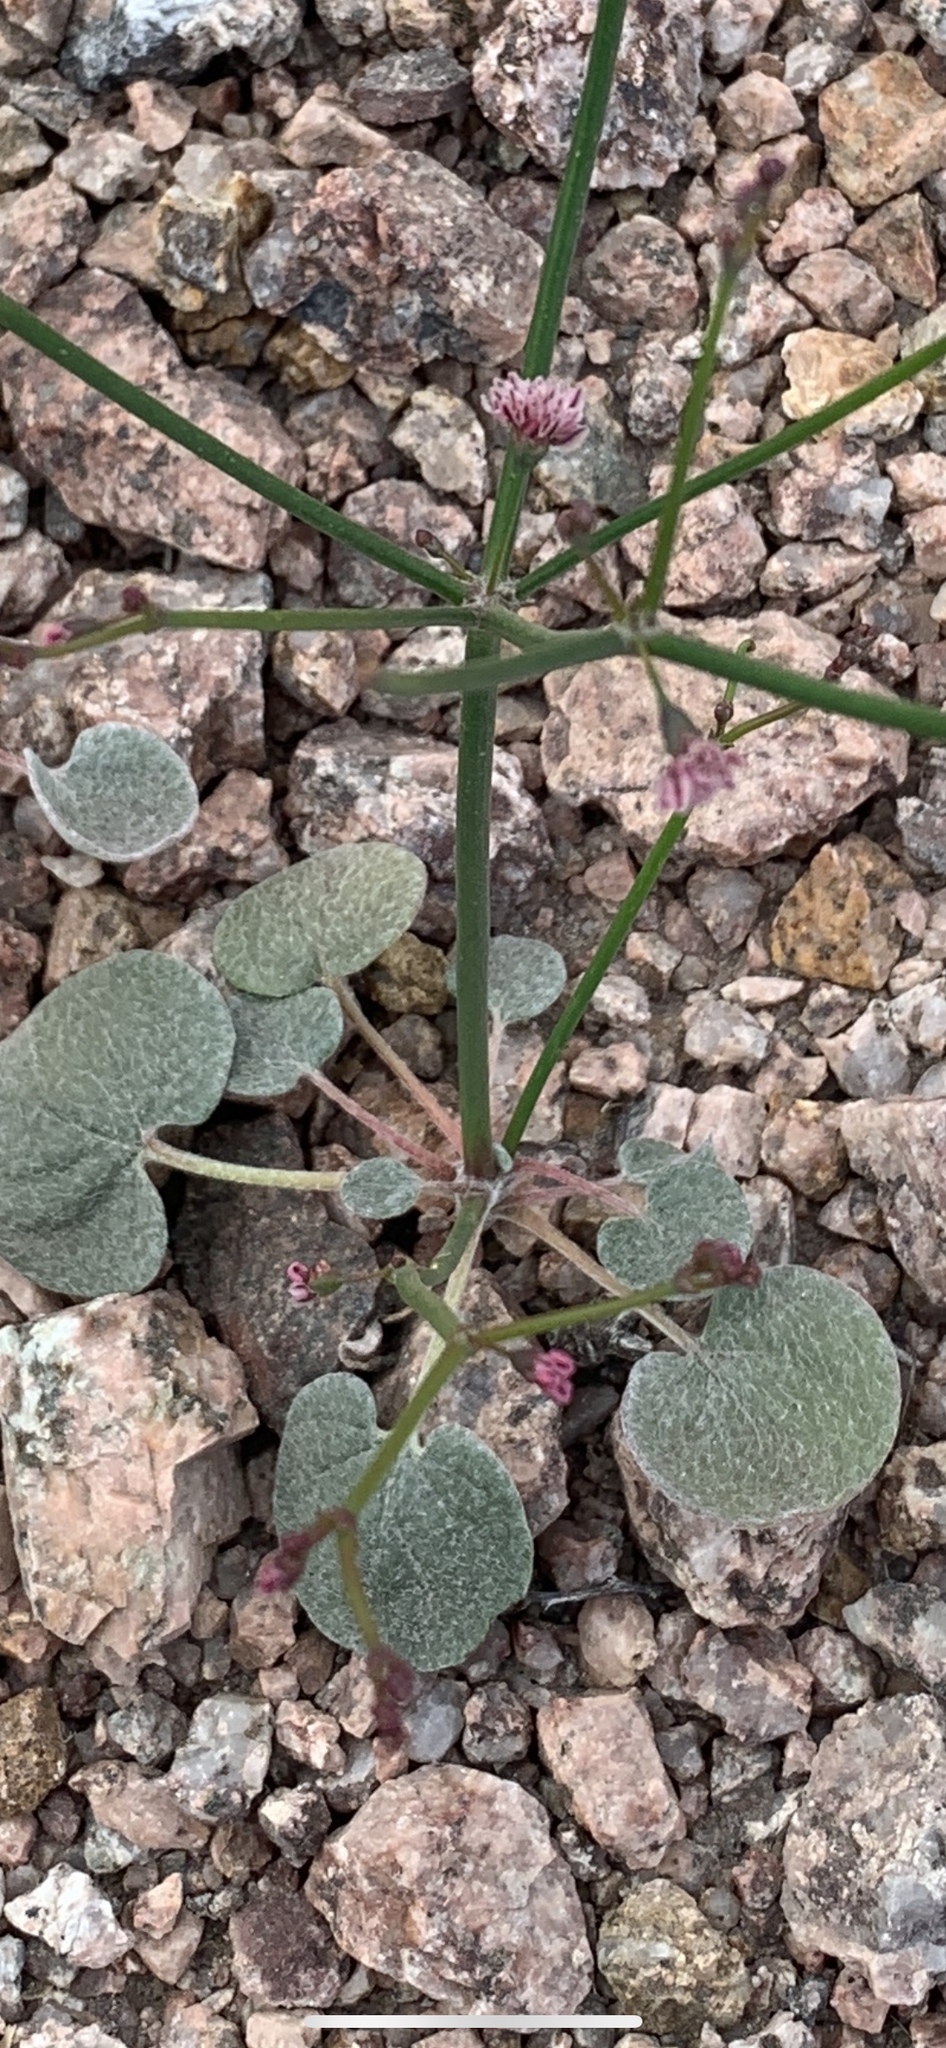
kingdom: Plantae
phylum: Tracheophyta
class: Magnoliopsida
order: Caryophyllales
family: Polygonaceae
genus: Eriogonum
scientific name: Eriogonum deflexum
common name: Skeleton-weed
